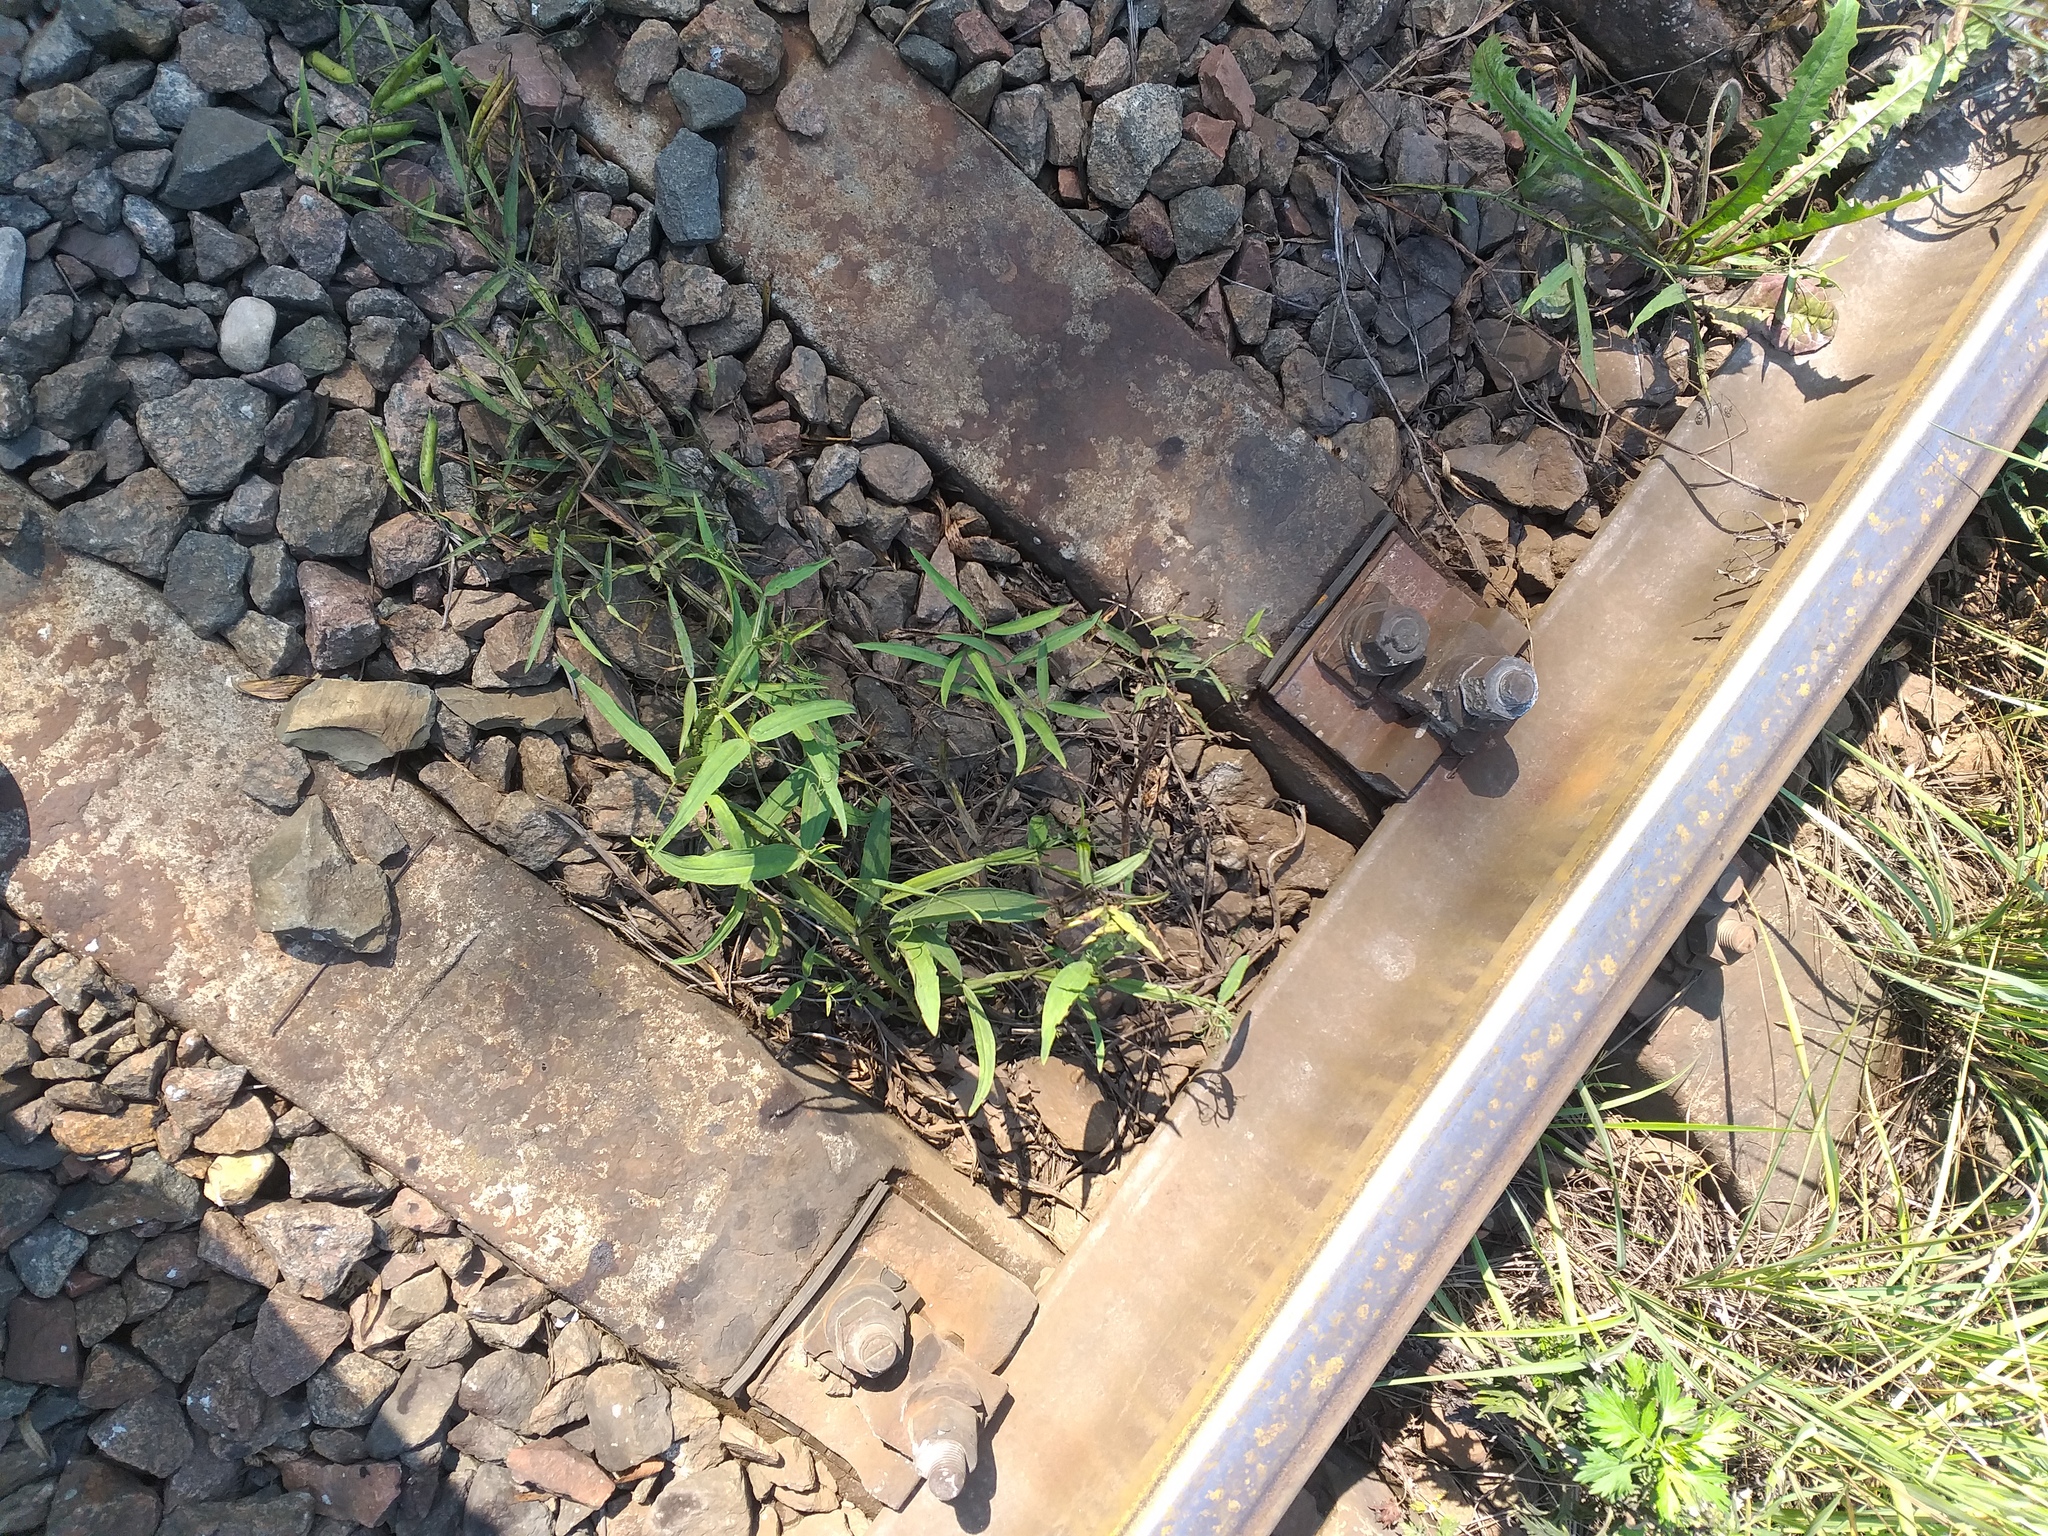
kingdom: Plantae
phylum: Tracheophyta
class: Magnoliopsida
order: Fabales
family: Fabaceae
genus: Lathyrus
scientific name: Lathyrus sylvestris
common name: Flat pea
